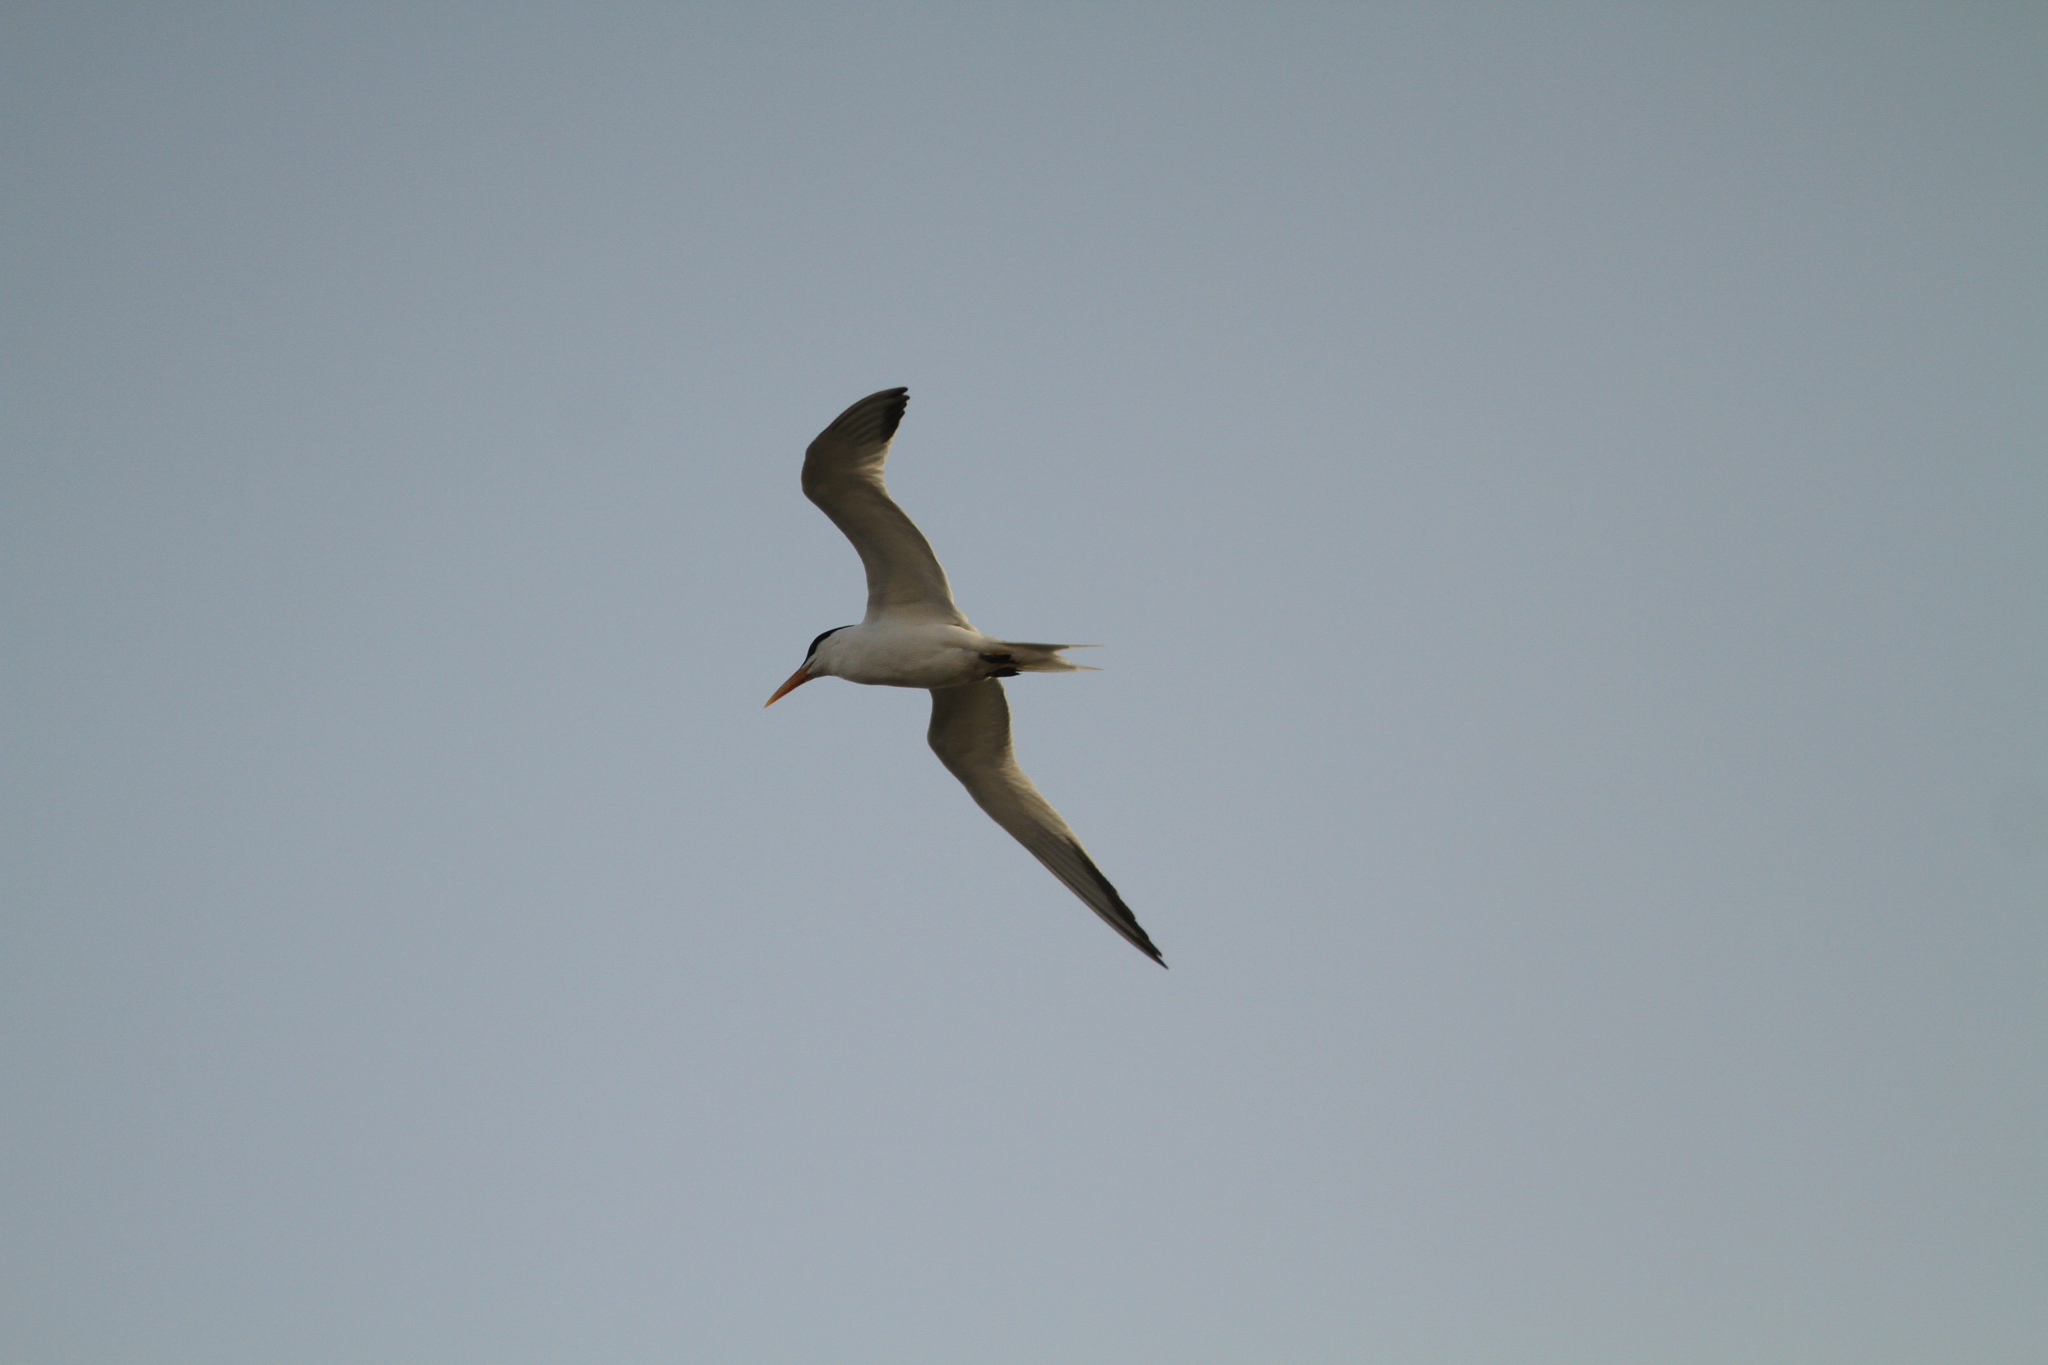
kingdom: Animalia
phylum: Chordata
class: Aves
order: Charadriiformes
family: Laridae
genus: Thalasseus
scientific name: Thalasseus albididorsalis
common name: West african crested tern
